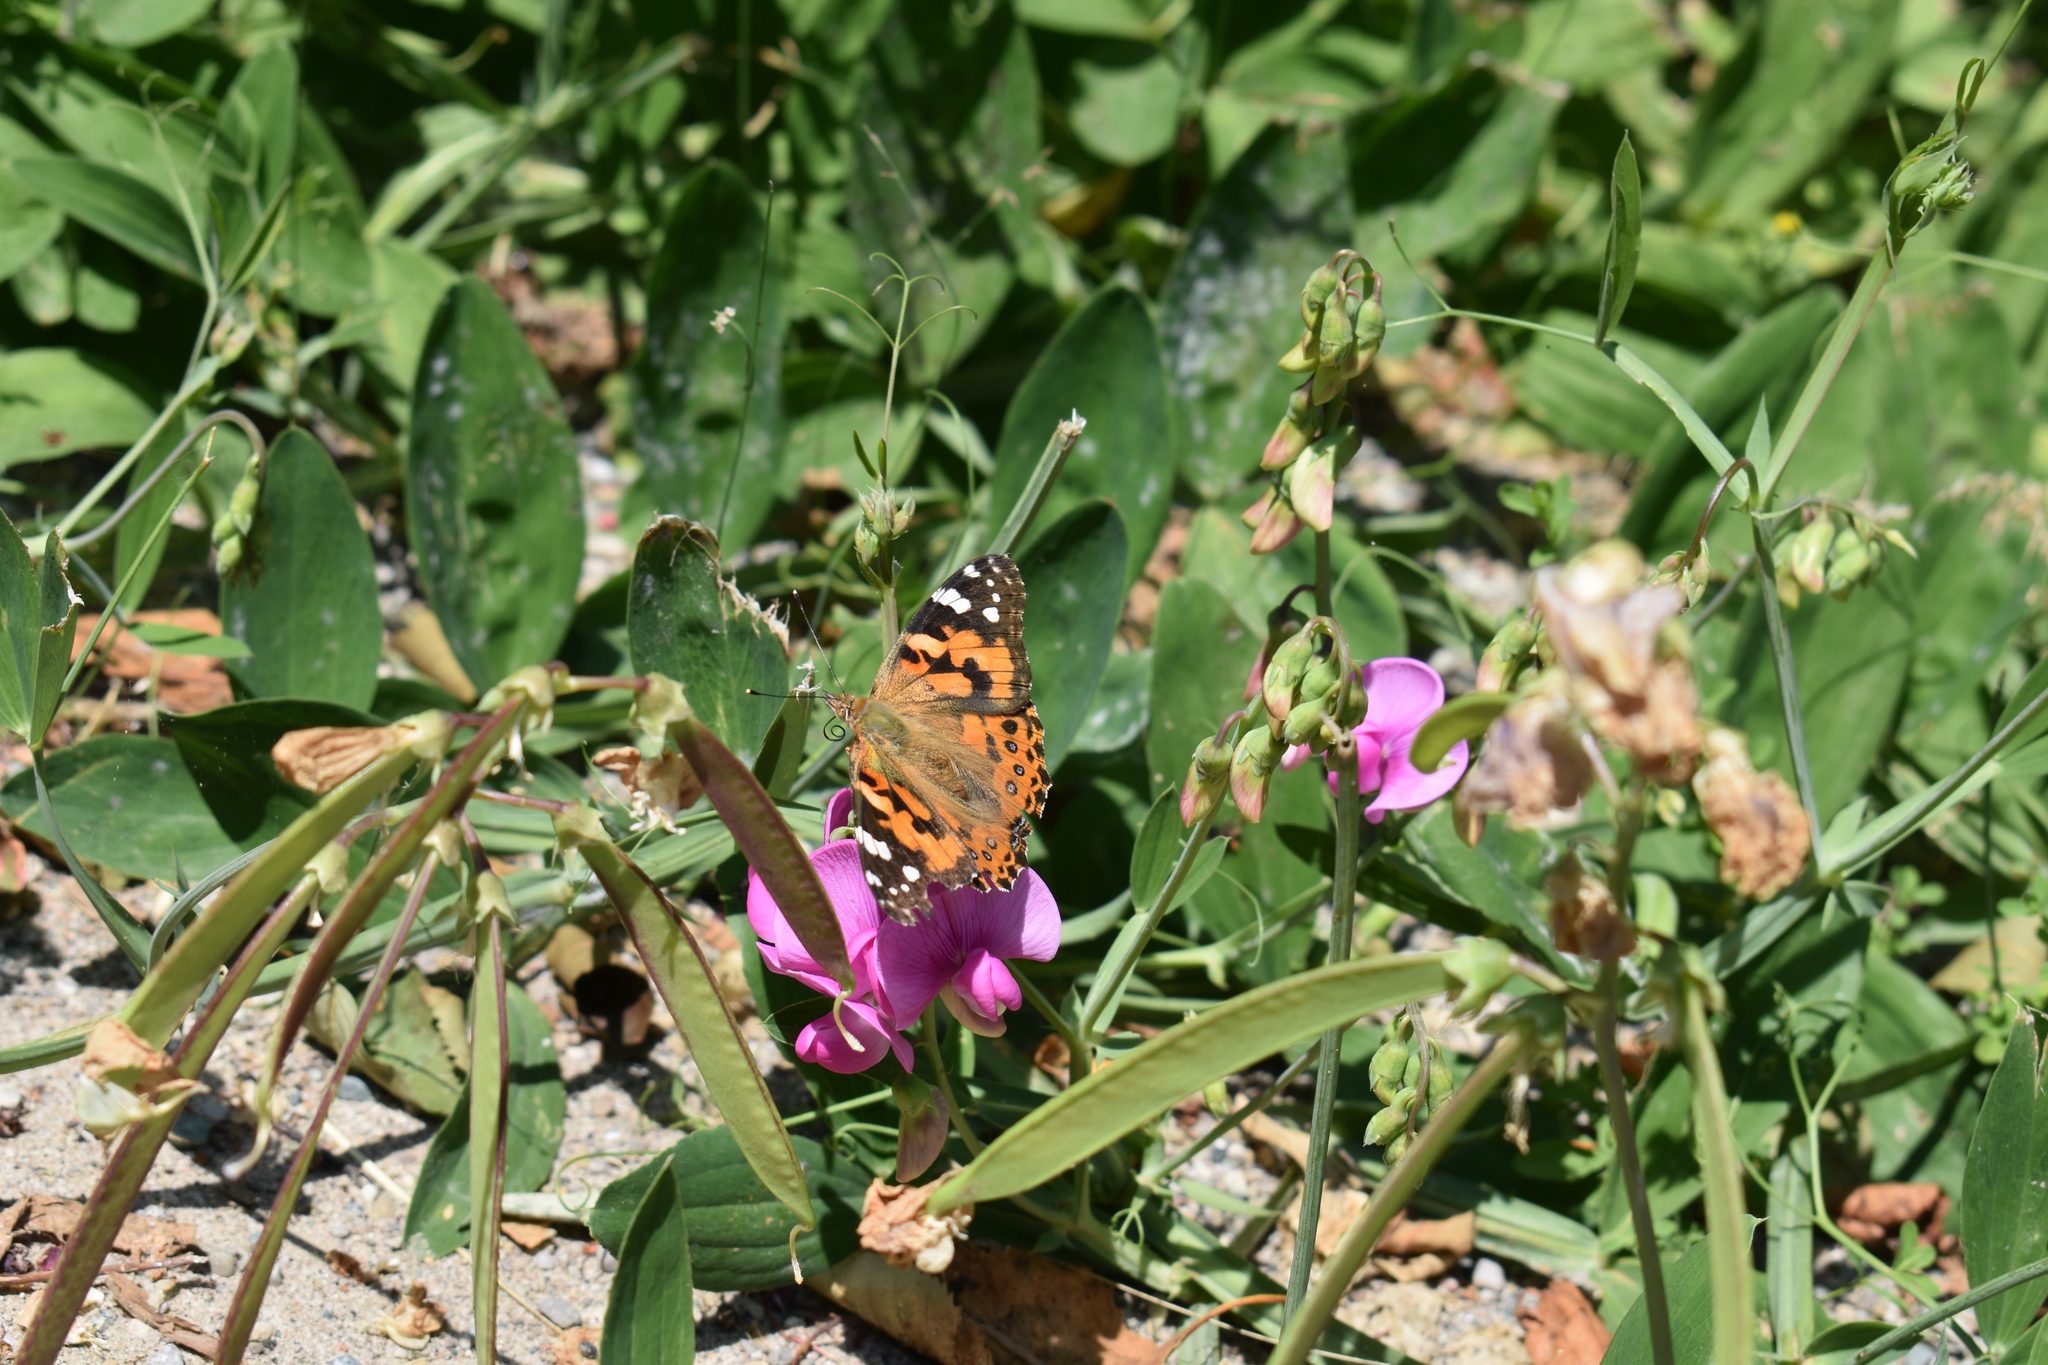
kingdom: Animalia
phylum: Arthropoda
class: Insecta
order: Lepidoptera
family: Nymphalidae
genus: Vanessa
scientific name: Vanessa cardui
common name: Painted lady
